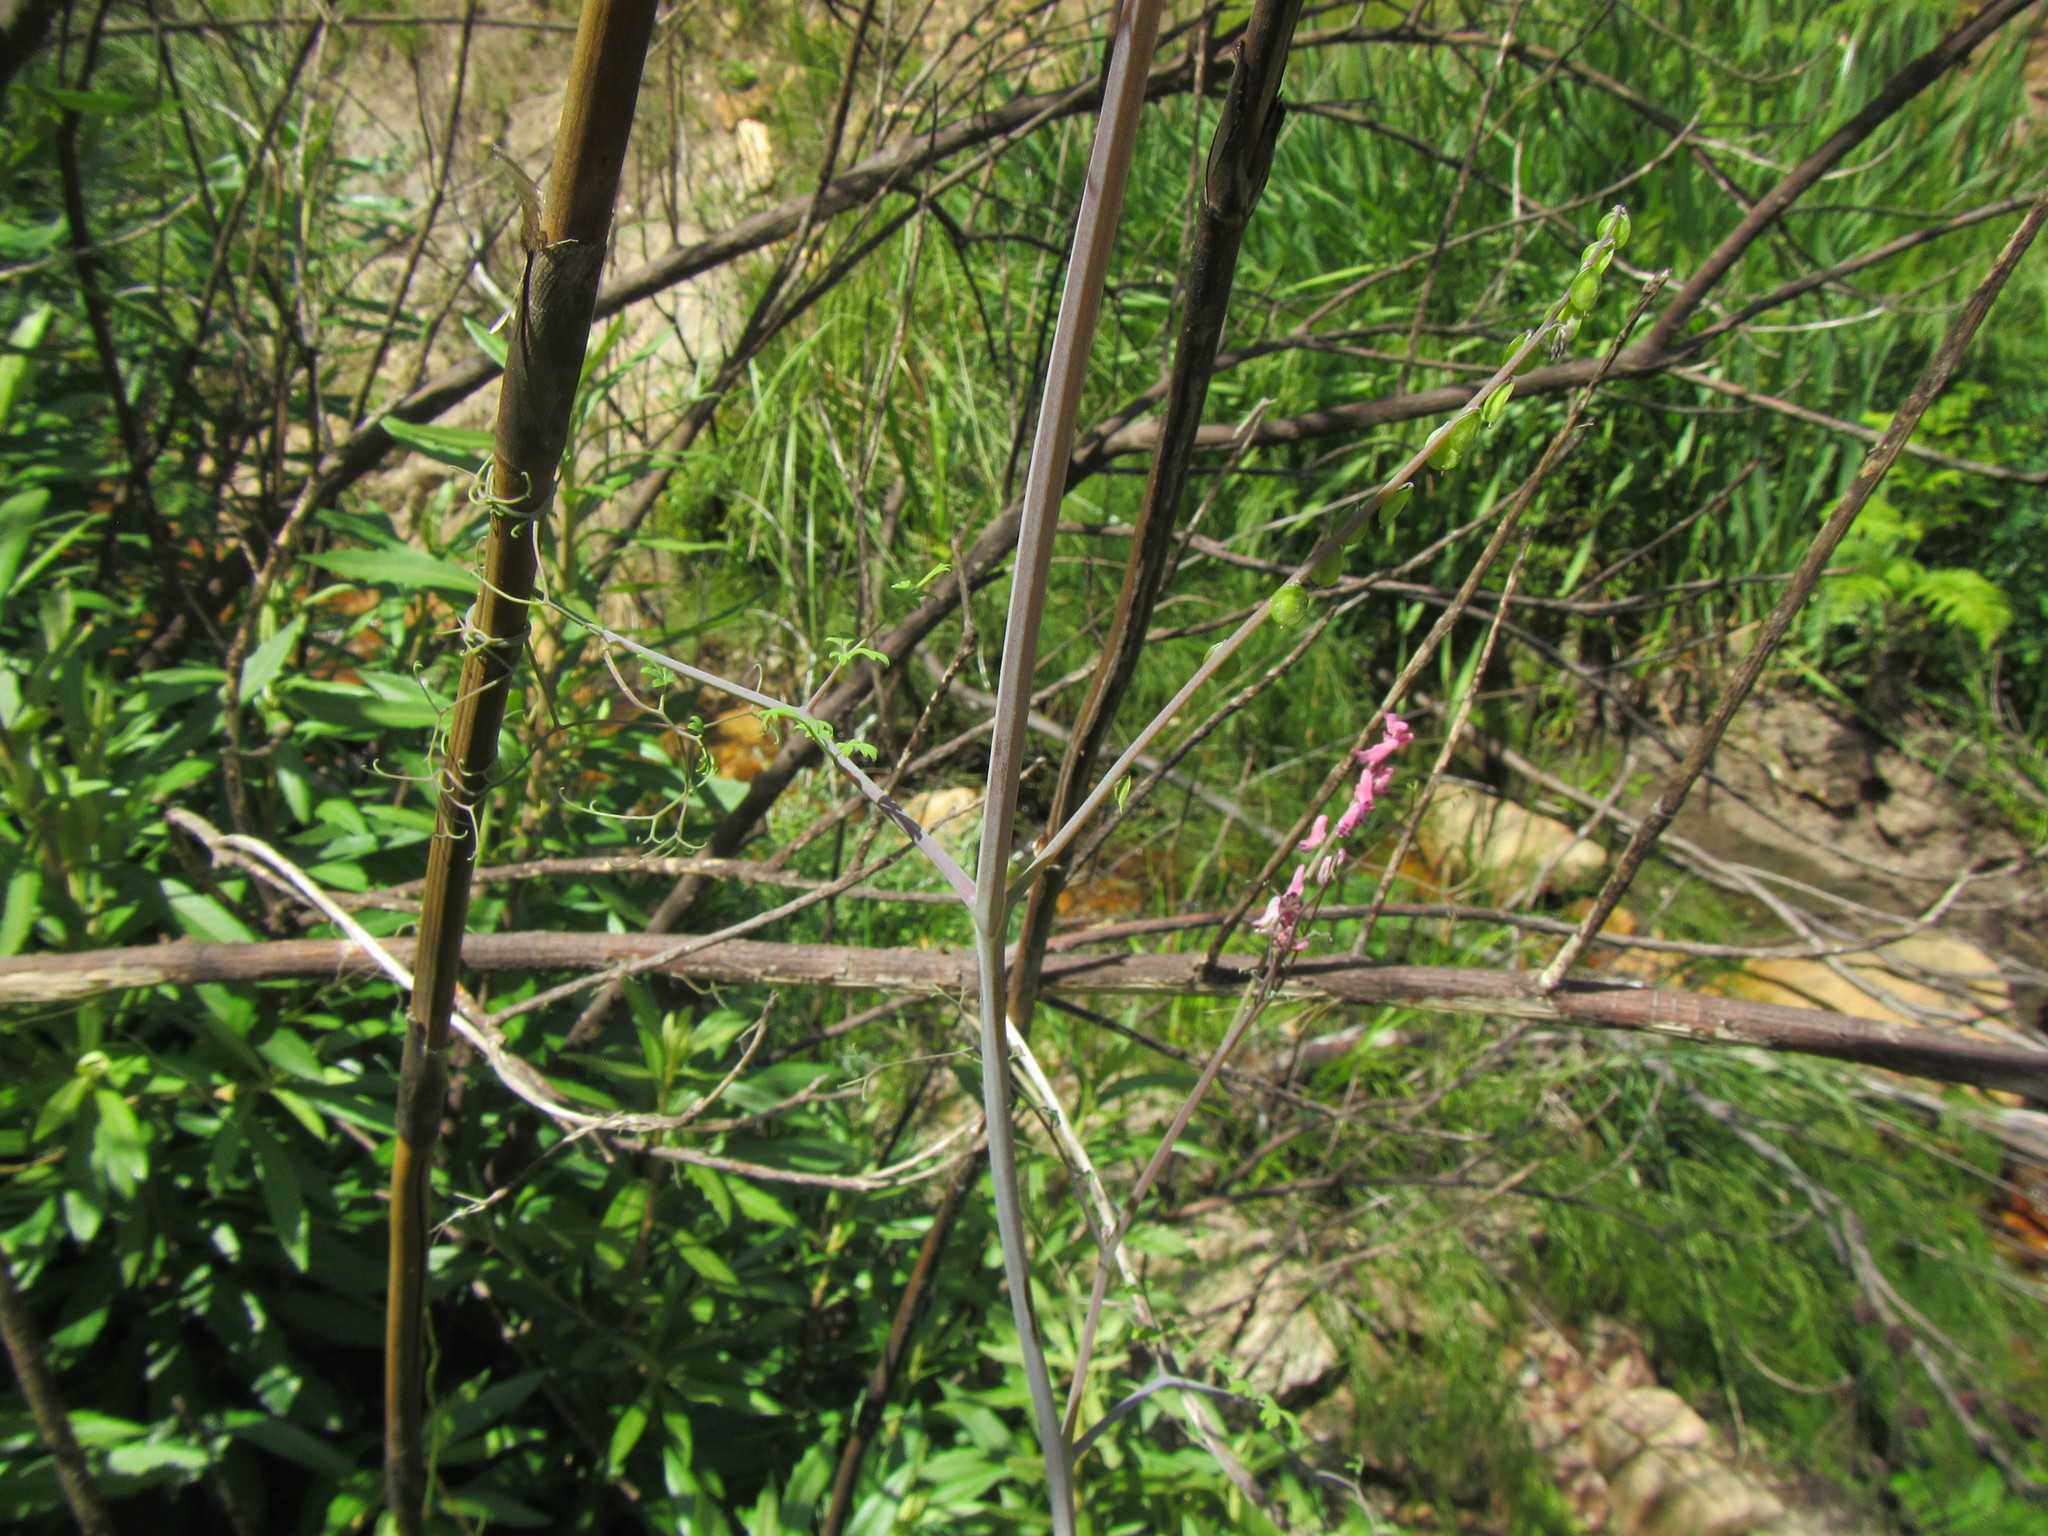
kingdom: Plantae
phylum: Tracheophyta
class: Magnoliopsida
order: Ranunculales
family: Papaveraceae
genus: Discocapnos
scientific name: Discocapnos mundti
